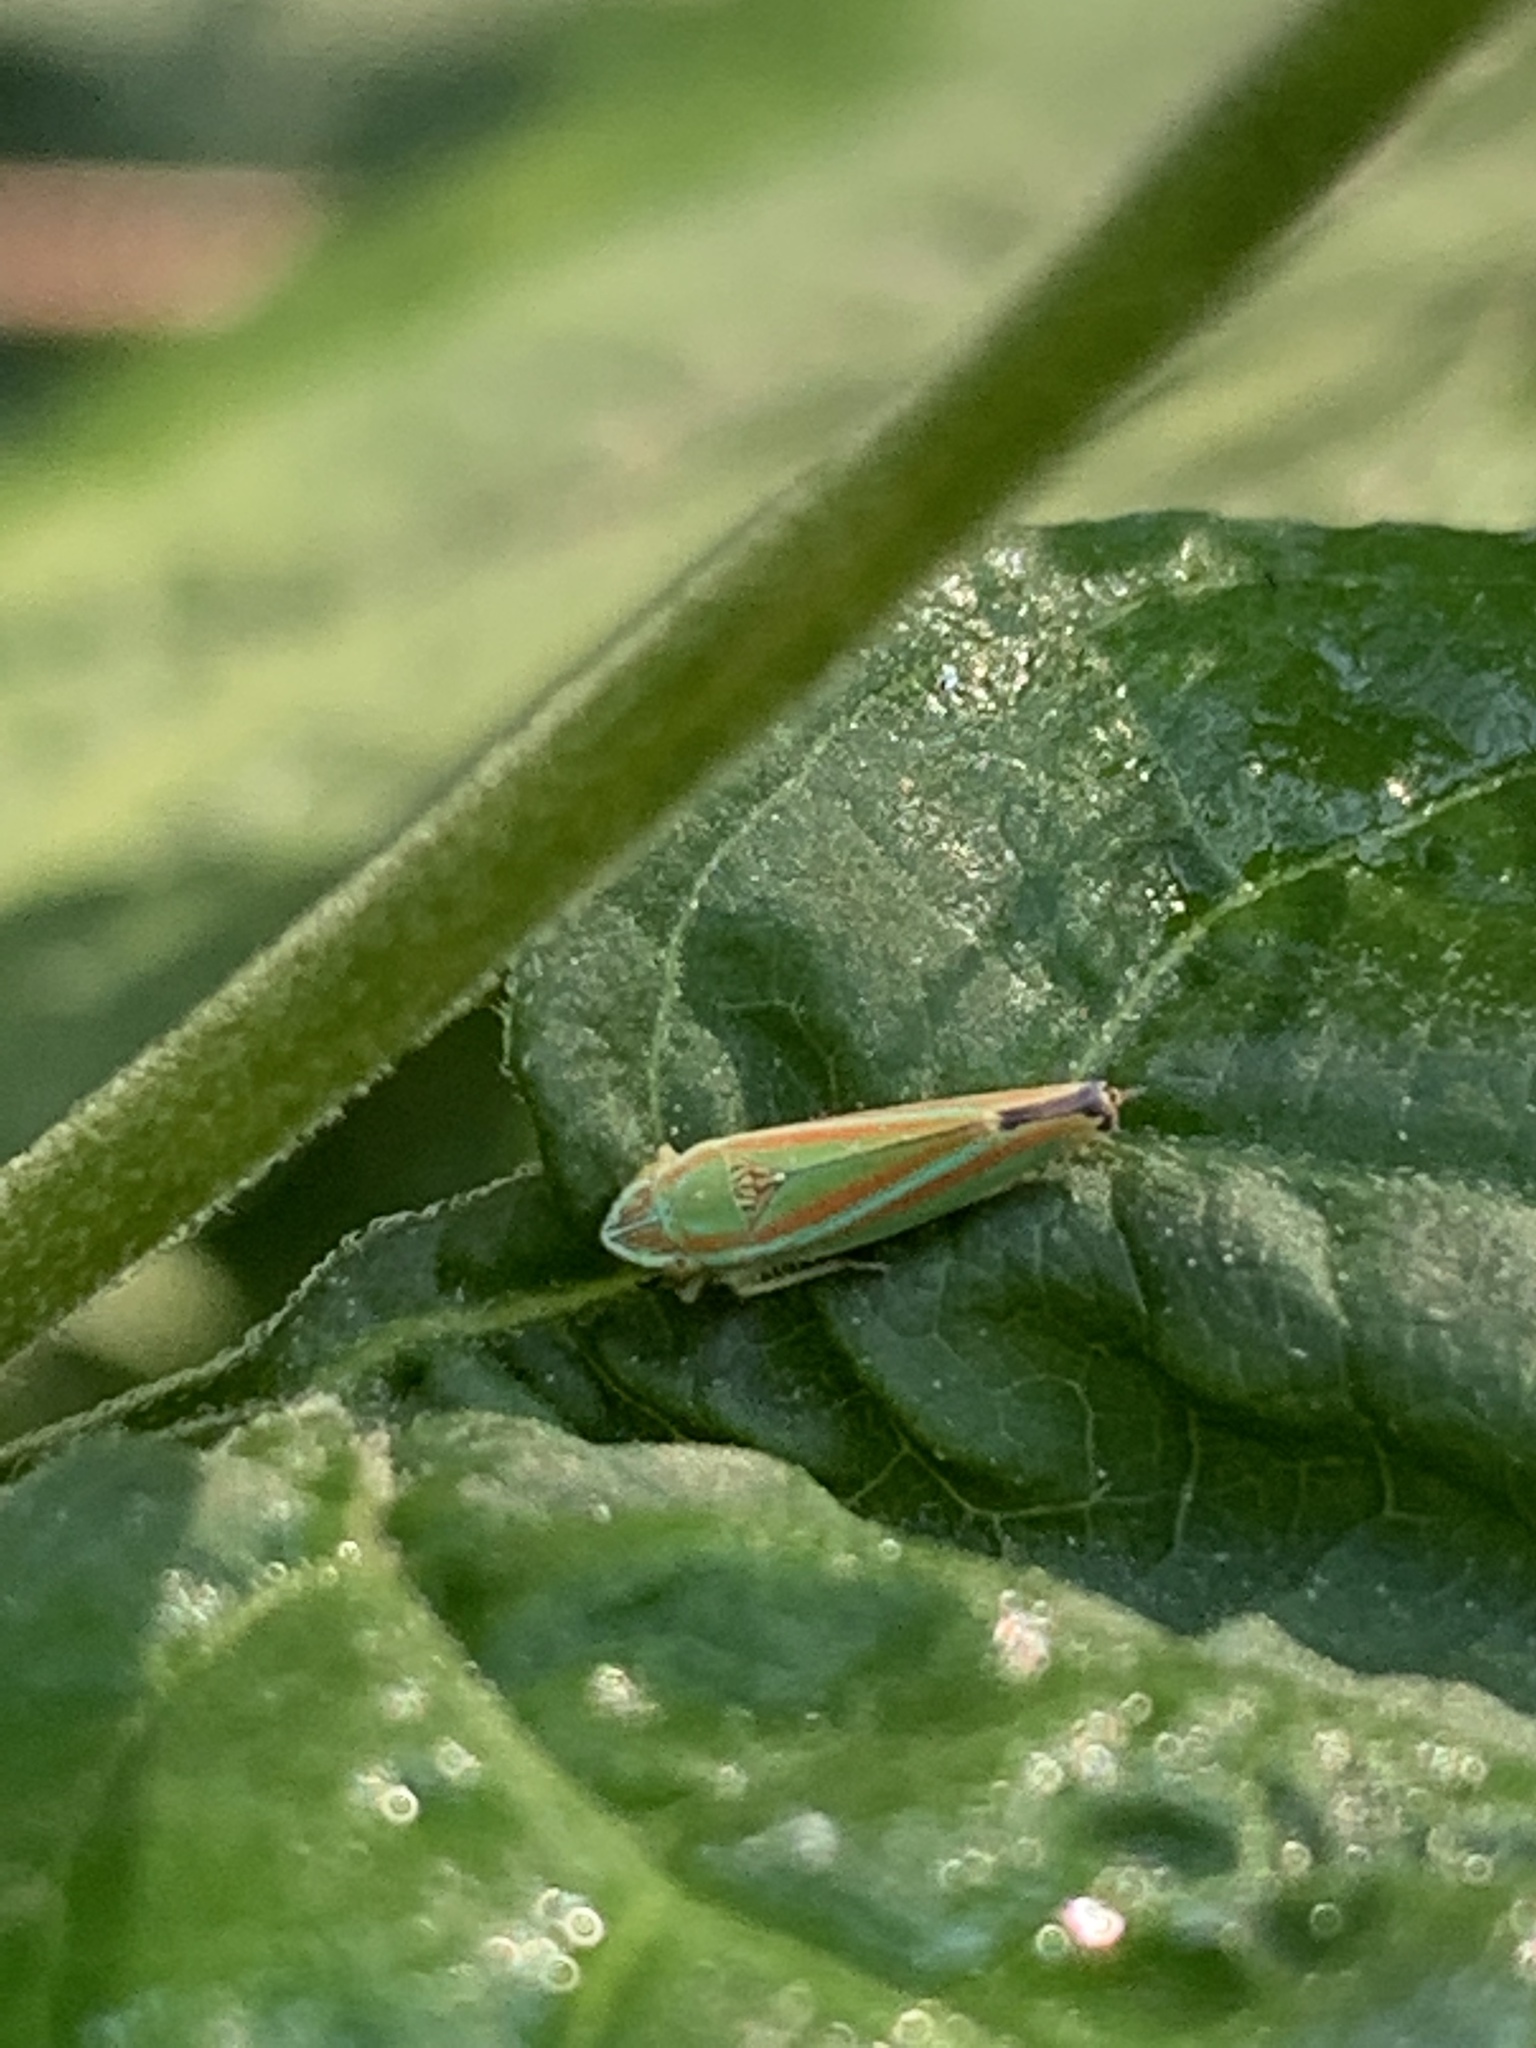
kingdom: Animalia
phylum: Arthropoda
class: Insecta
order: Hemiptera
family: Cicadellidae
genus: Graphocephala
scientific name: Graphocephala versuta
